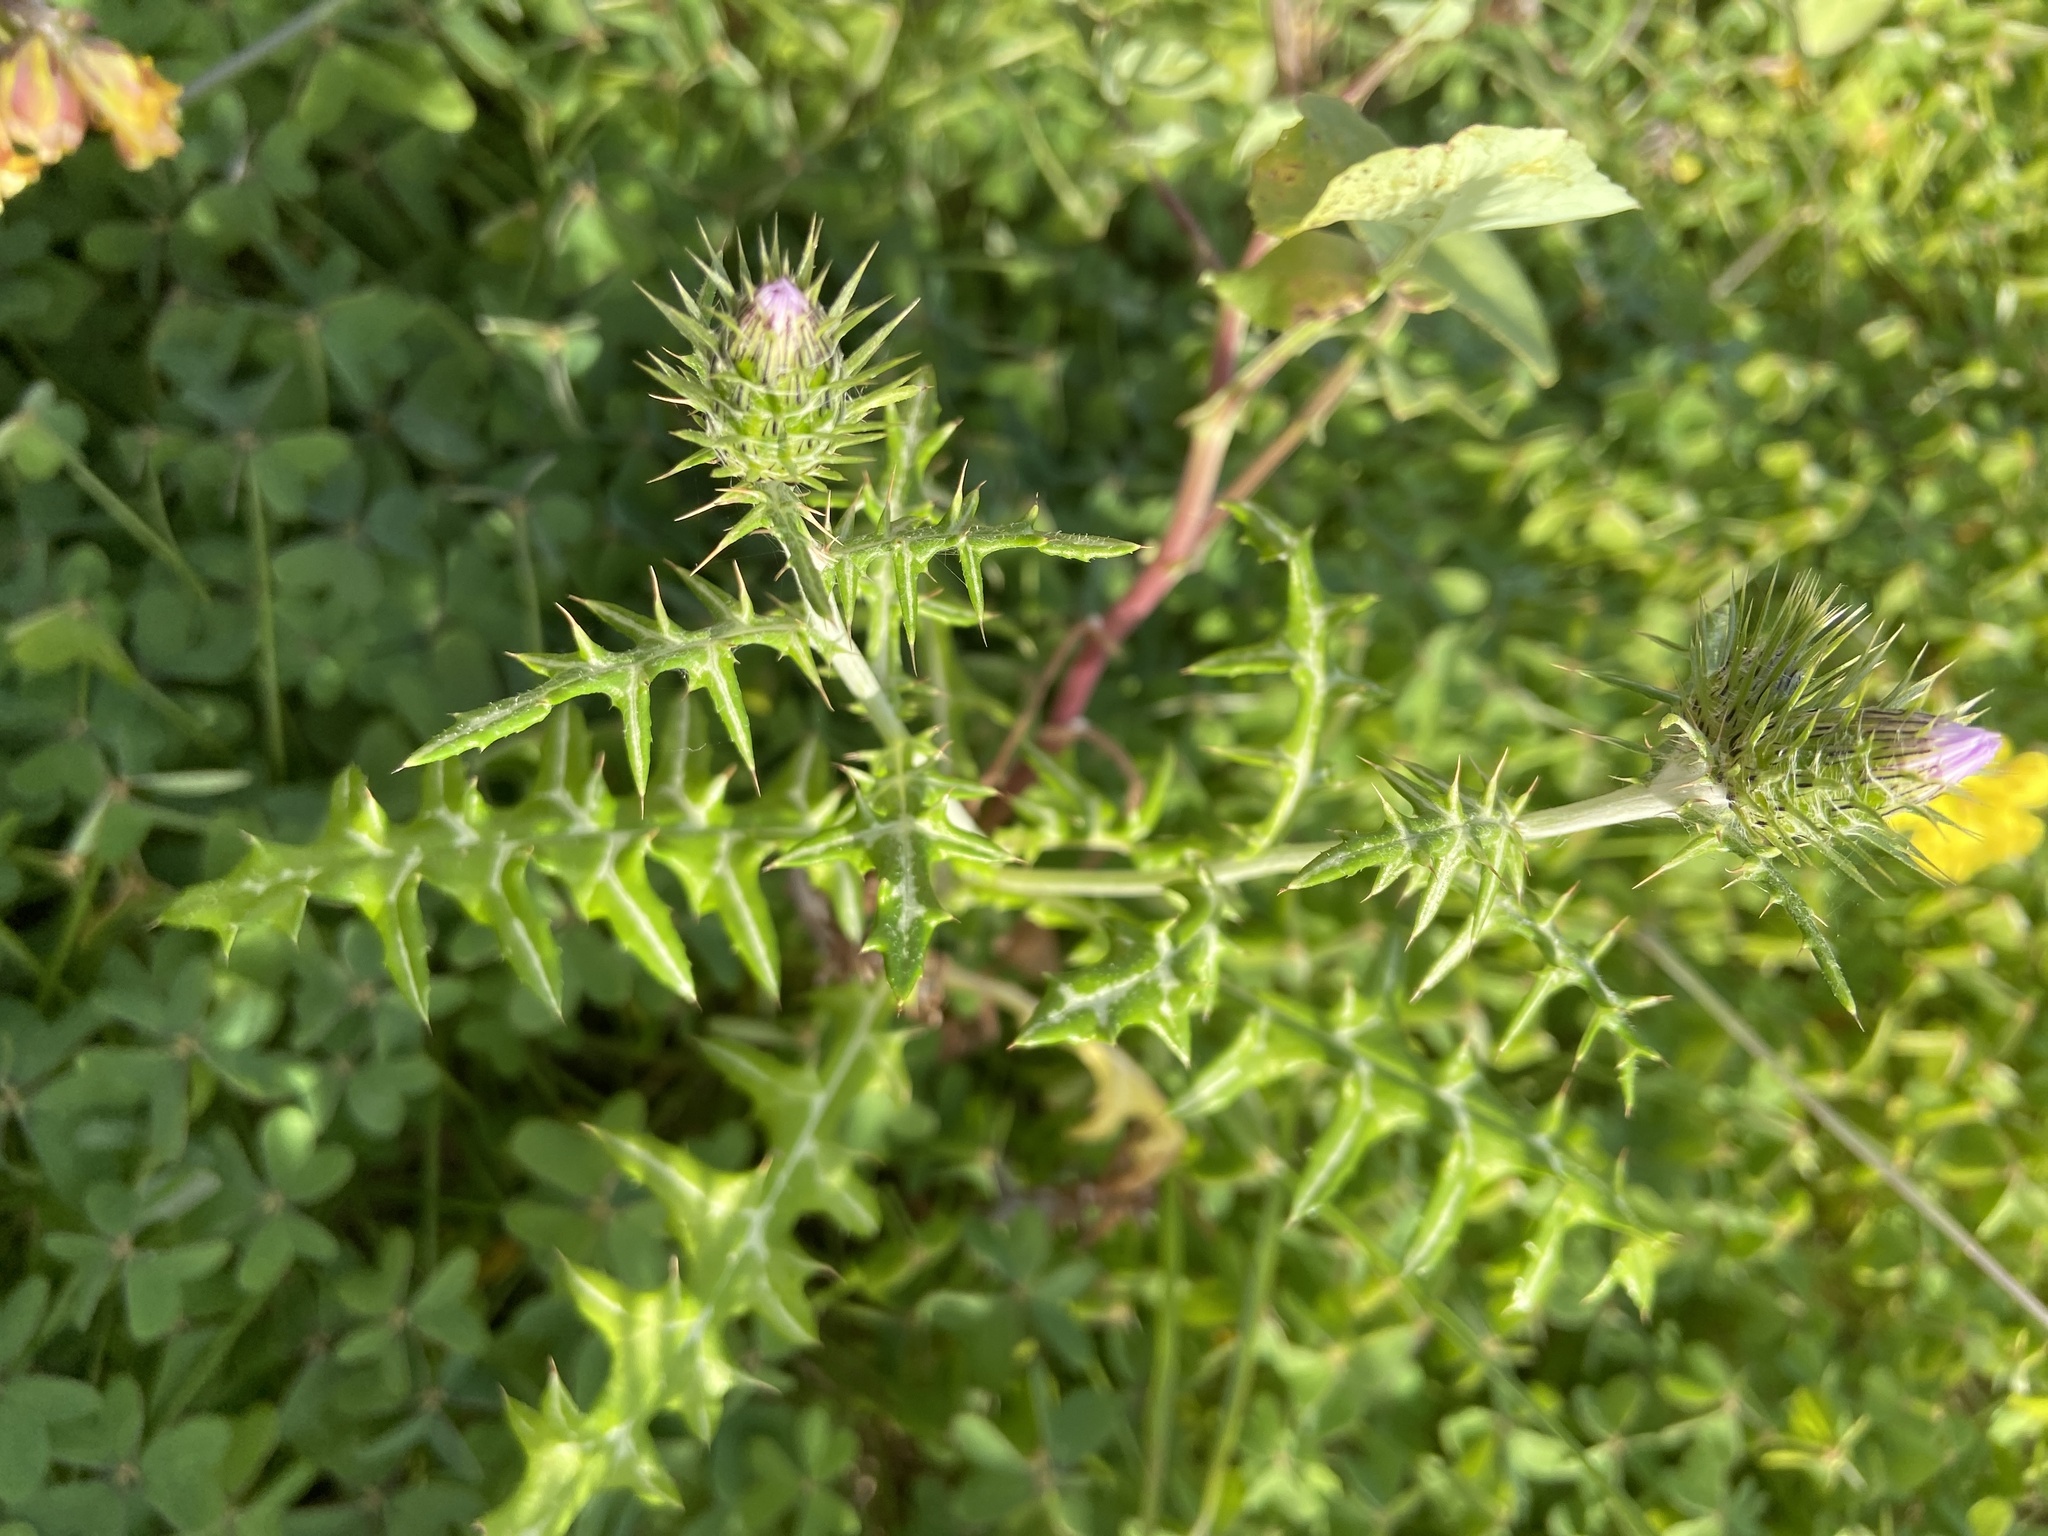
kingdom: Plantae
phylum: Tracheophyta
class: Magnoliopsida
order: Asterales
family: Asteraceae
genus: Galactites
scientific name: Galactites tomentosa
